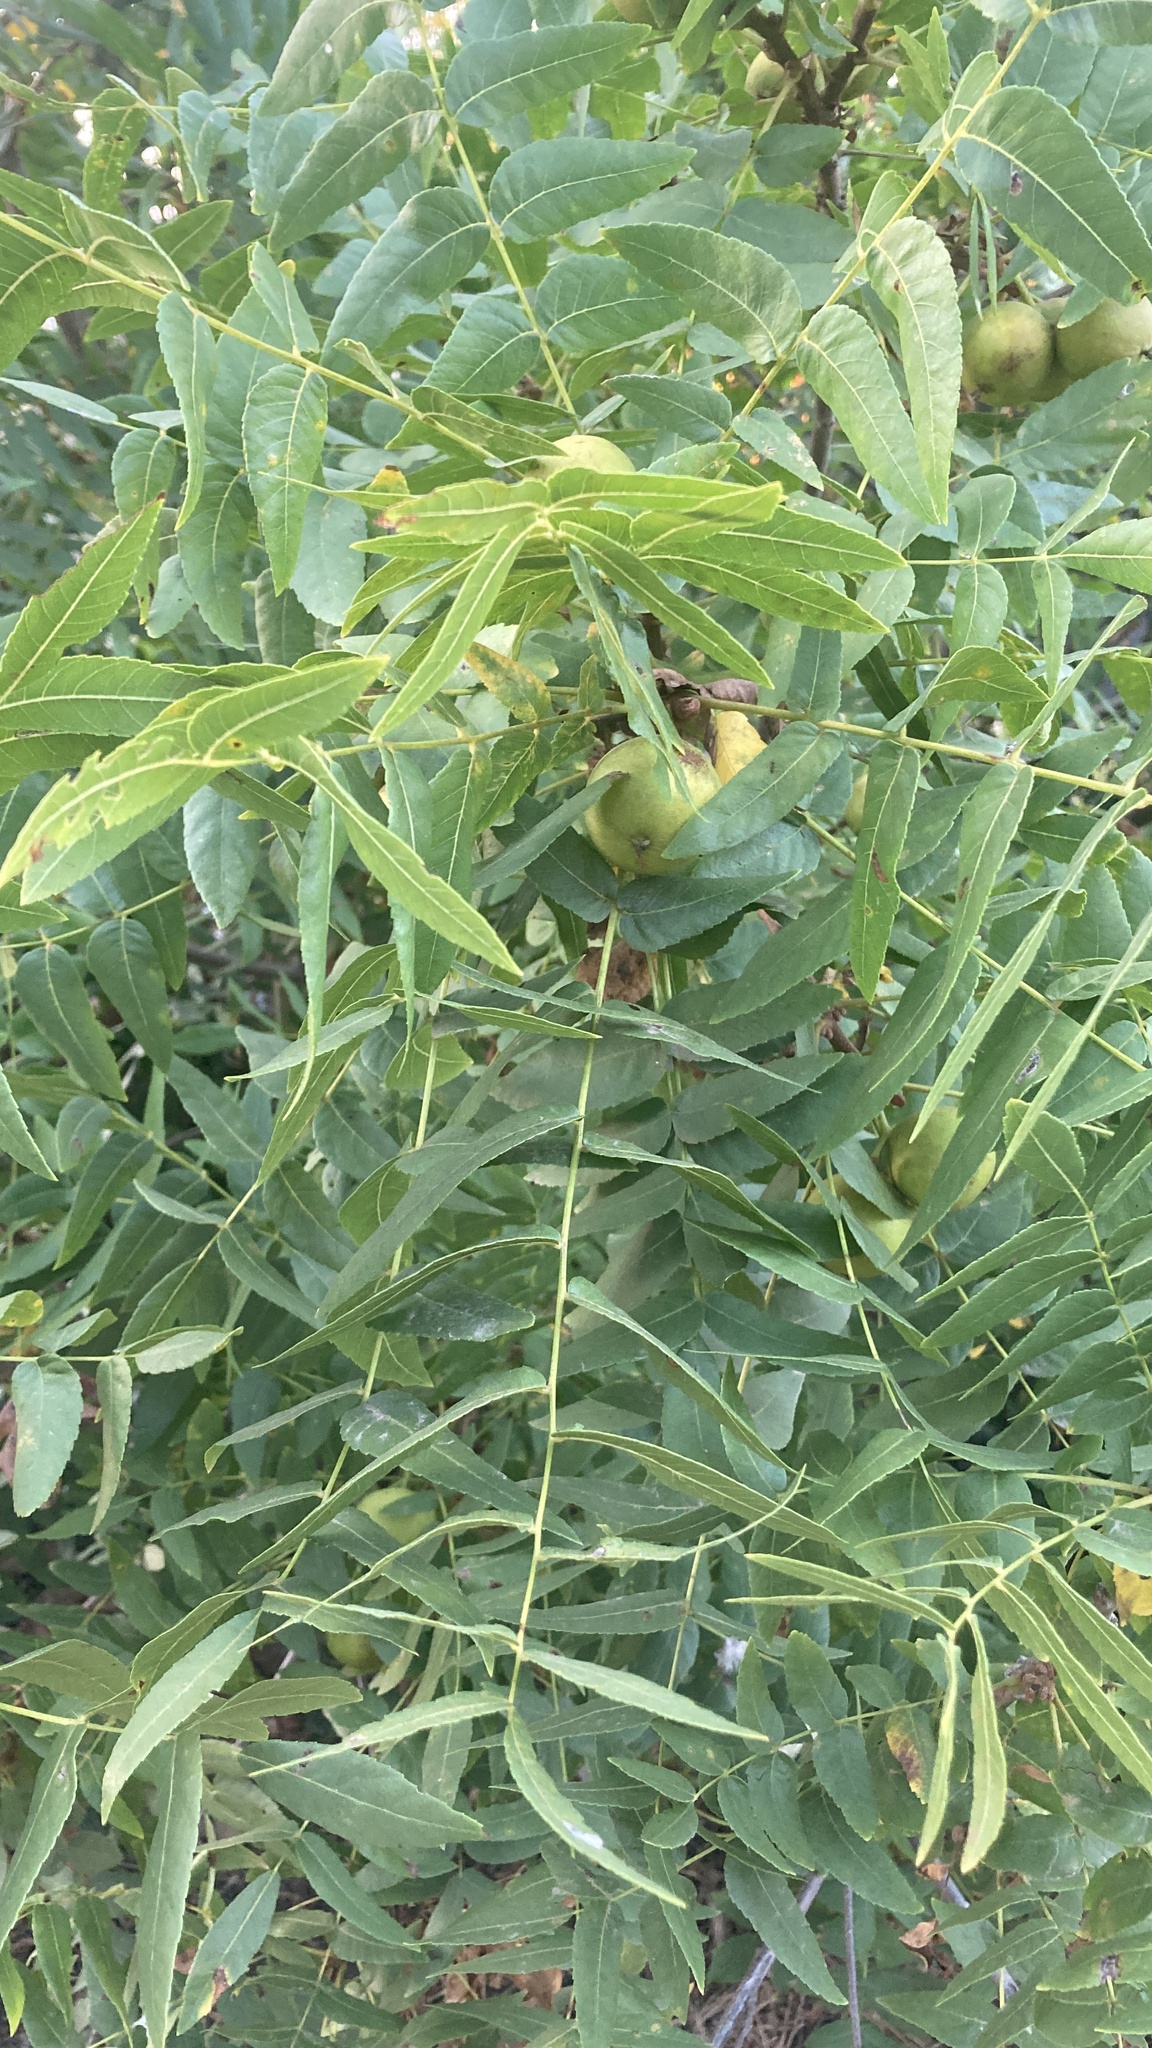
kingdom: Plantae
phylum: Tracheophyta
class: Magnoliopsida
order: Fagales
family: Juglandaceae
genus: Juglans
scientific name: Juglans californica
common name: Southern california black walnut
